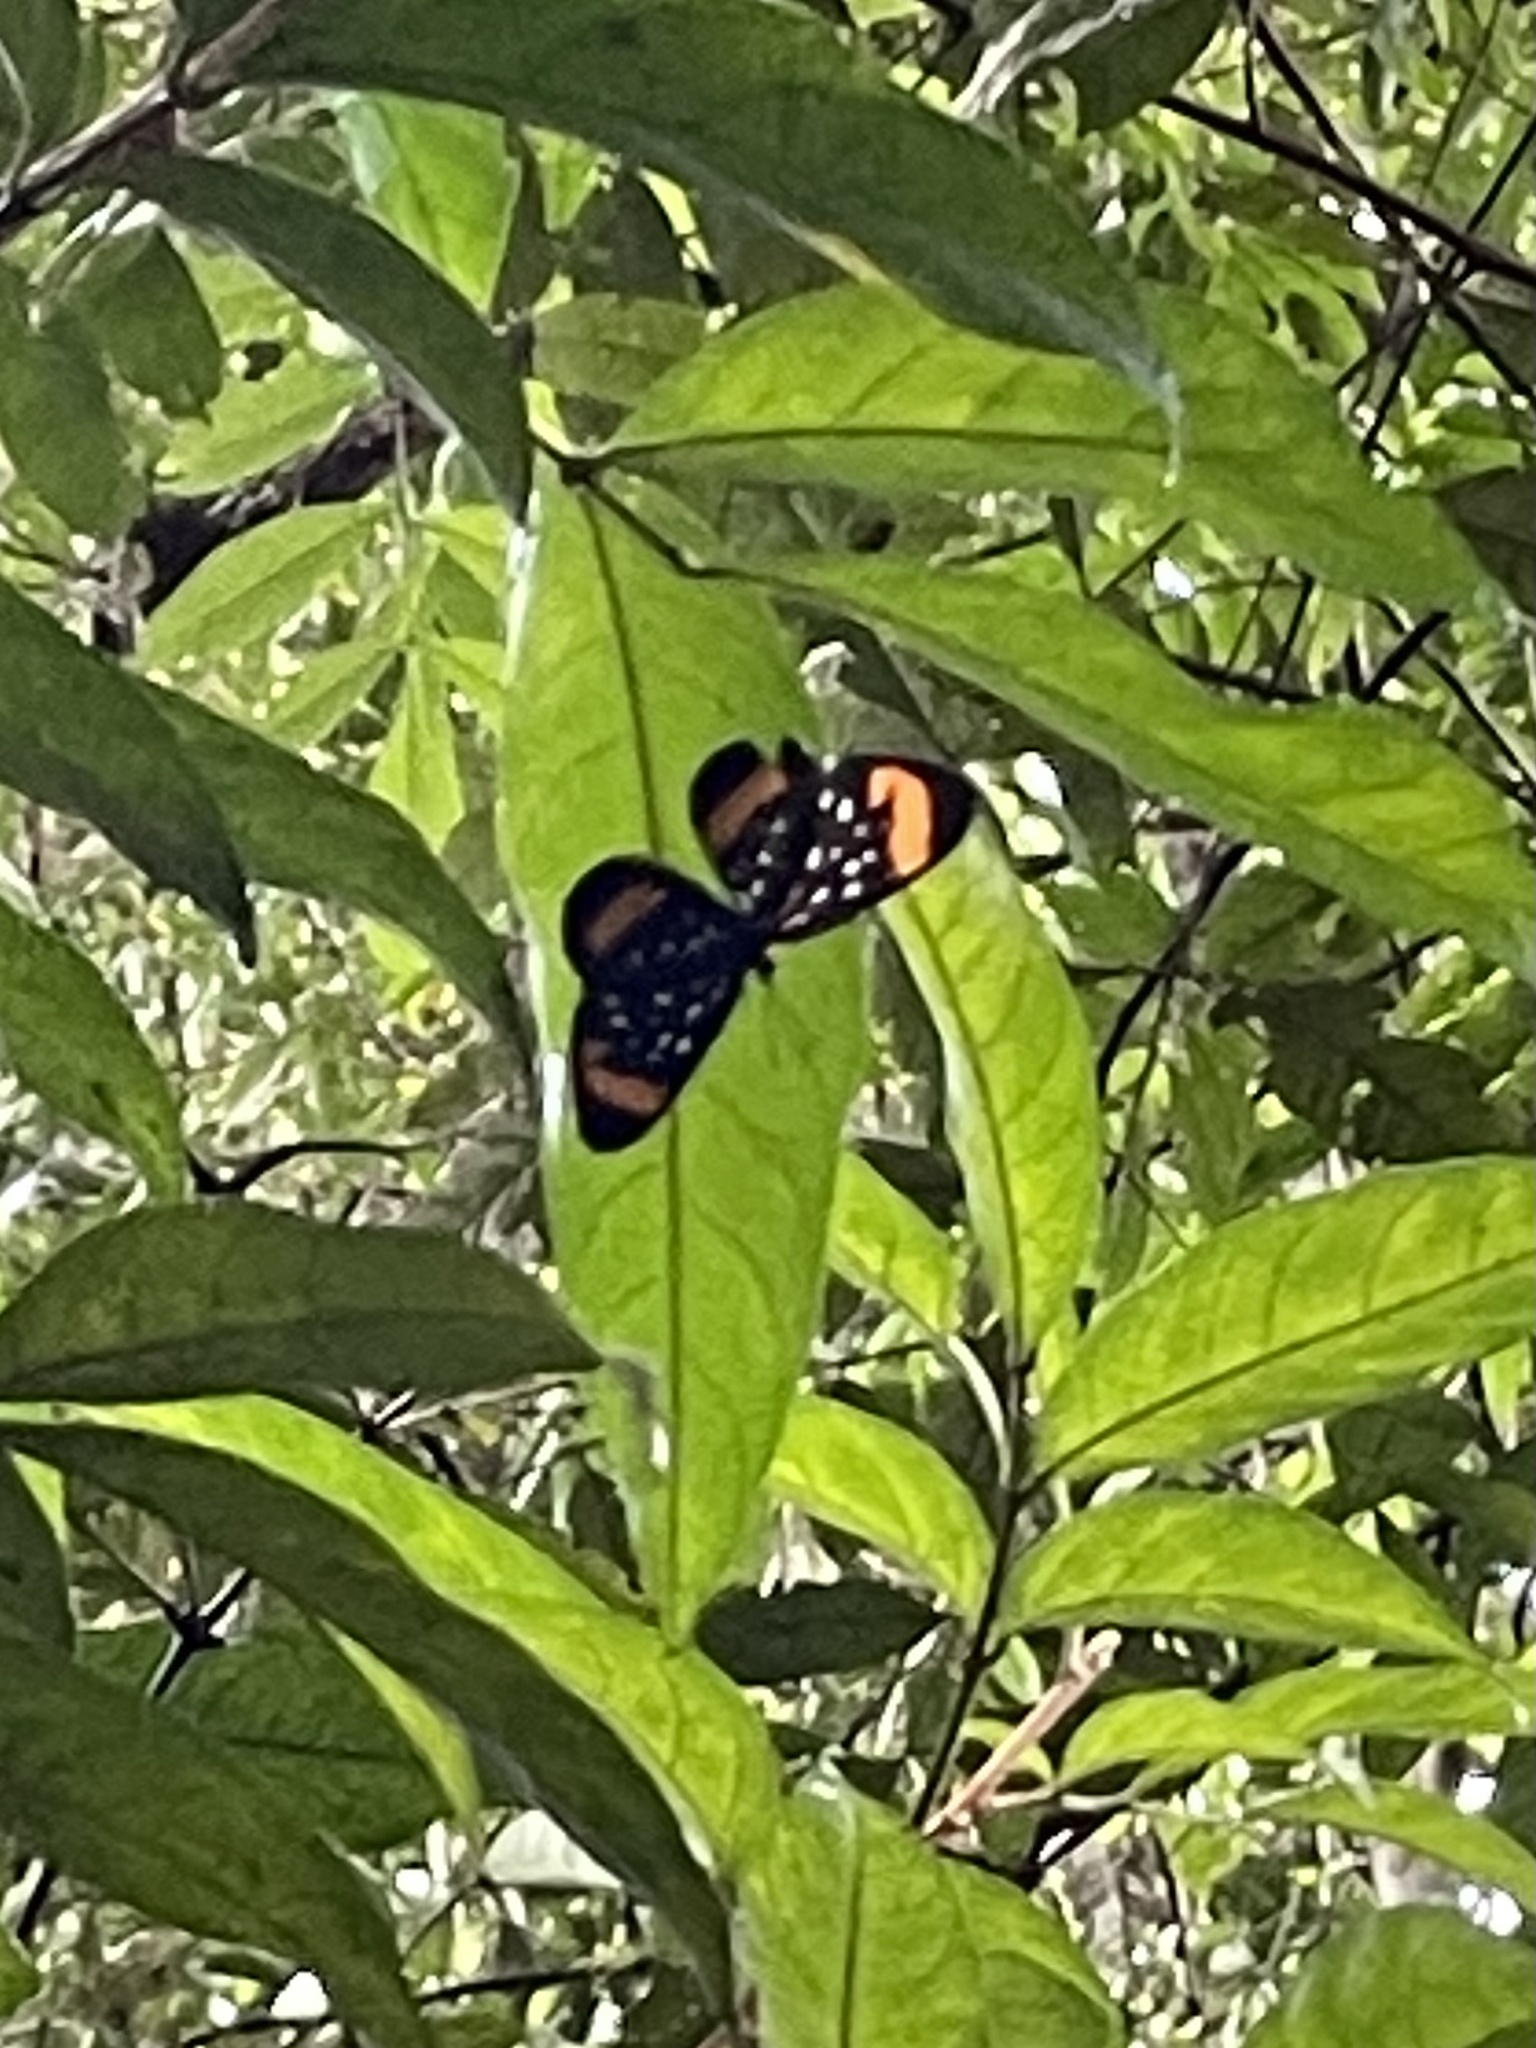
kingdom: Animalia
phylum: Arthropoda
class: Insecta
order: Lepidoptera
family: Riodinidae
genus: Stalachtis
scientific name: Stalachtis euterpe
